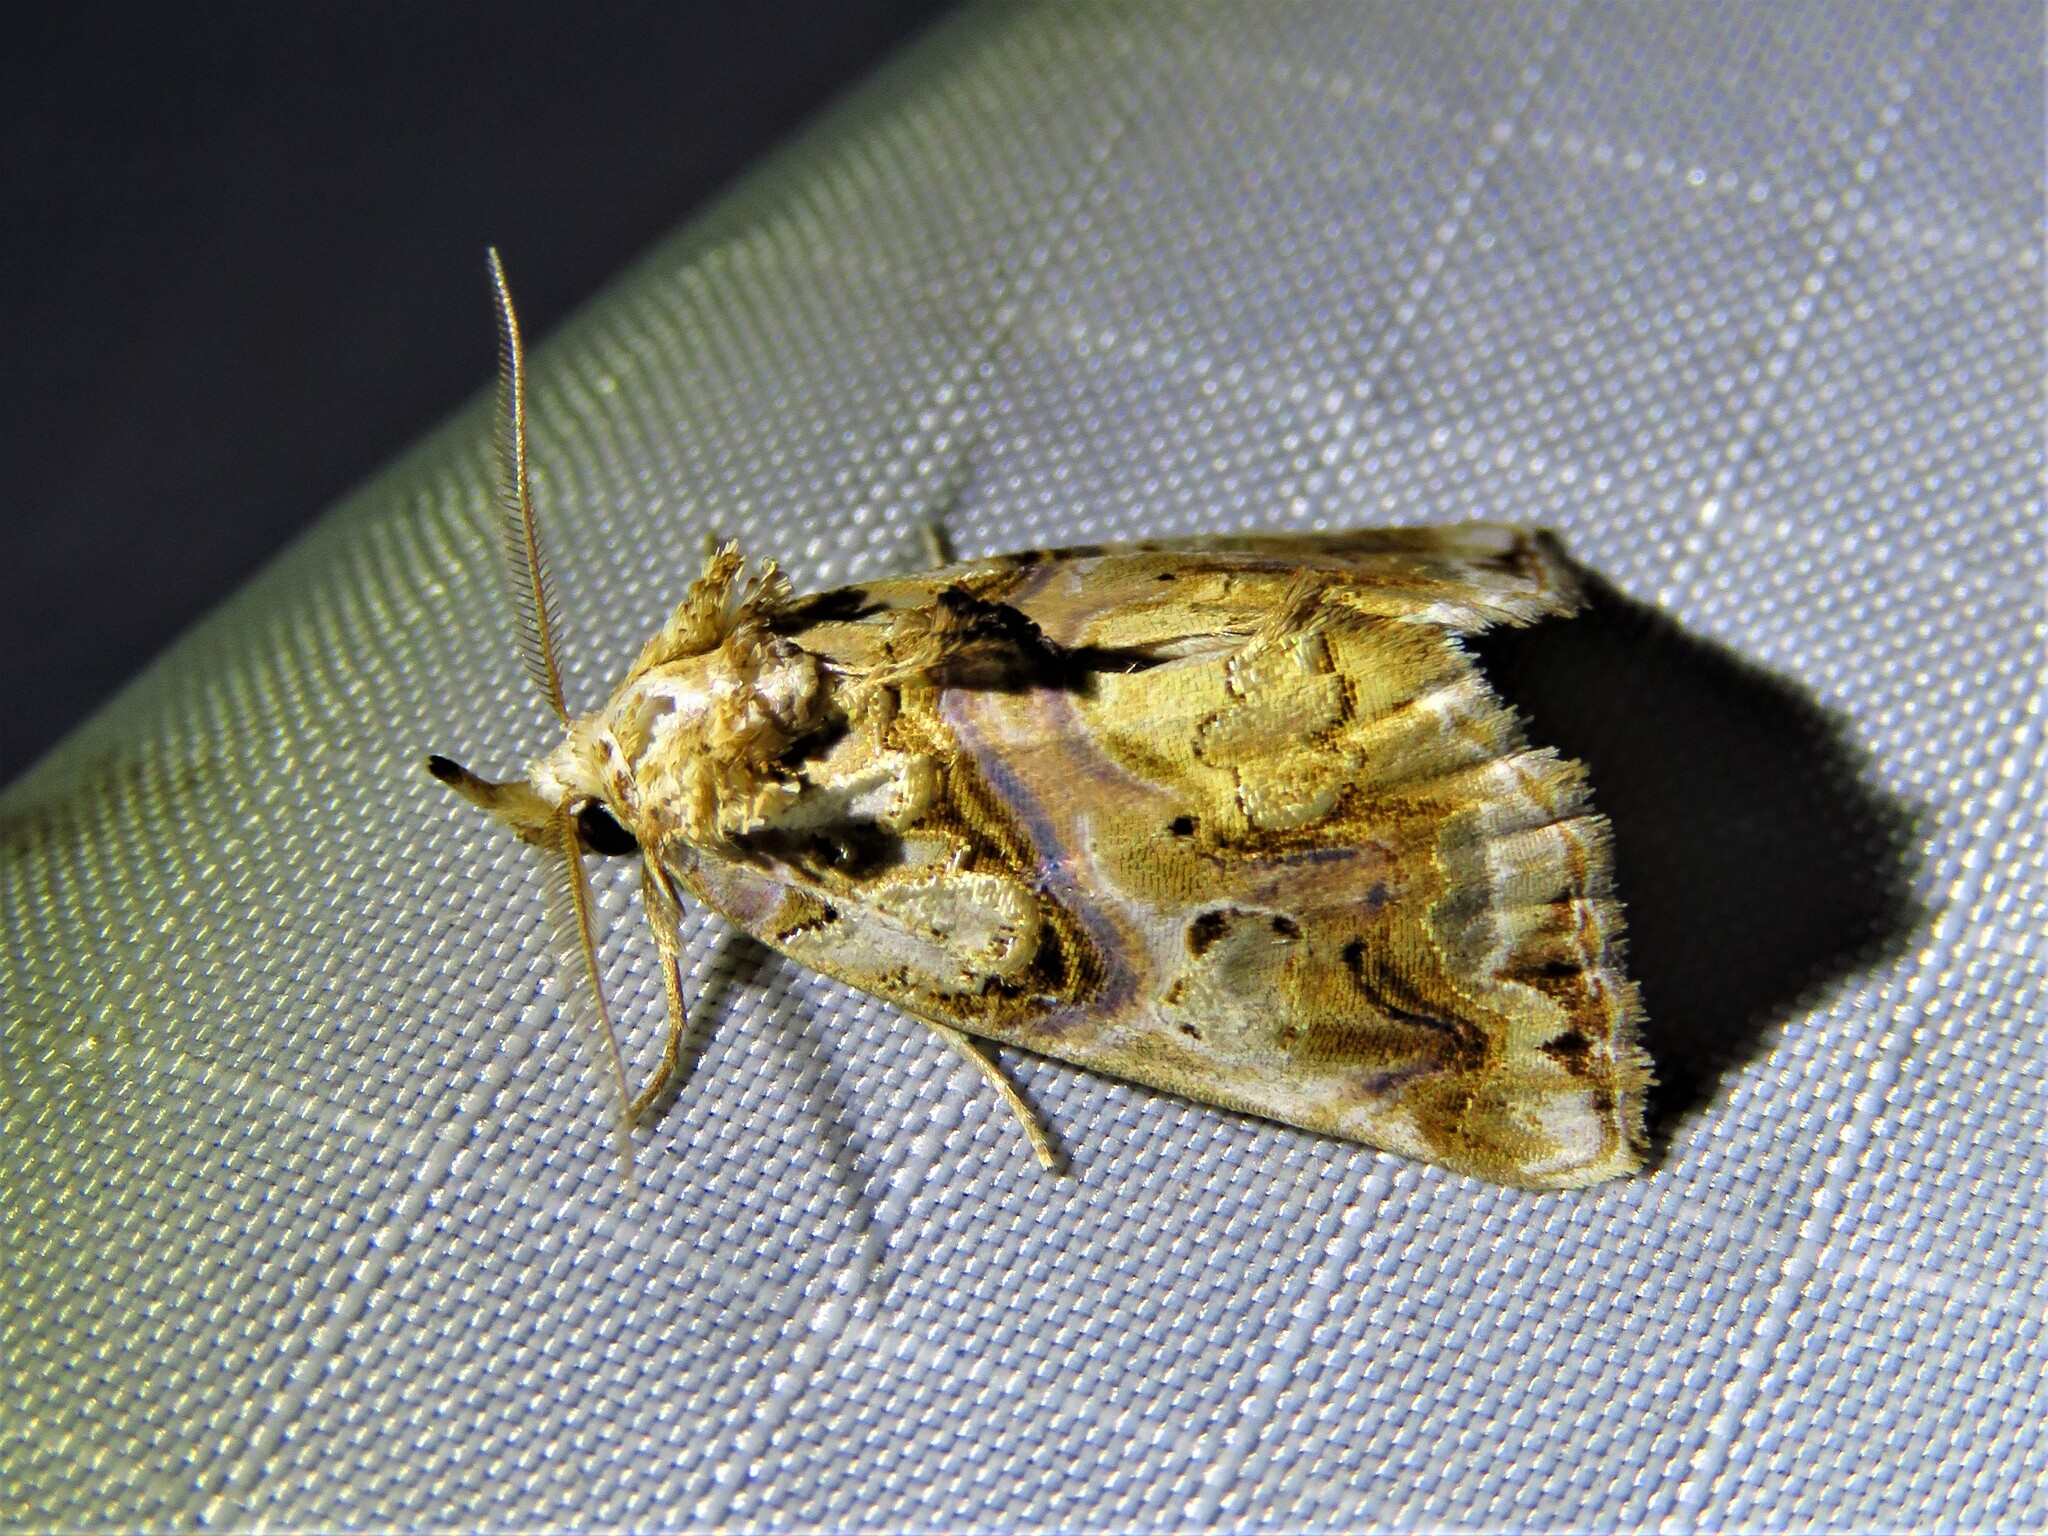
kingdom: Animalia
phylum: Arthropoda
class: Insecta
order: Lepidoptera
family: Erebidae
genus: Plusiodonta
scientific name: Plusiodonta compressipalpis
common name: Moonseed moth
